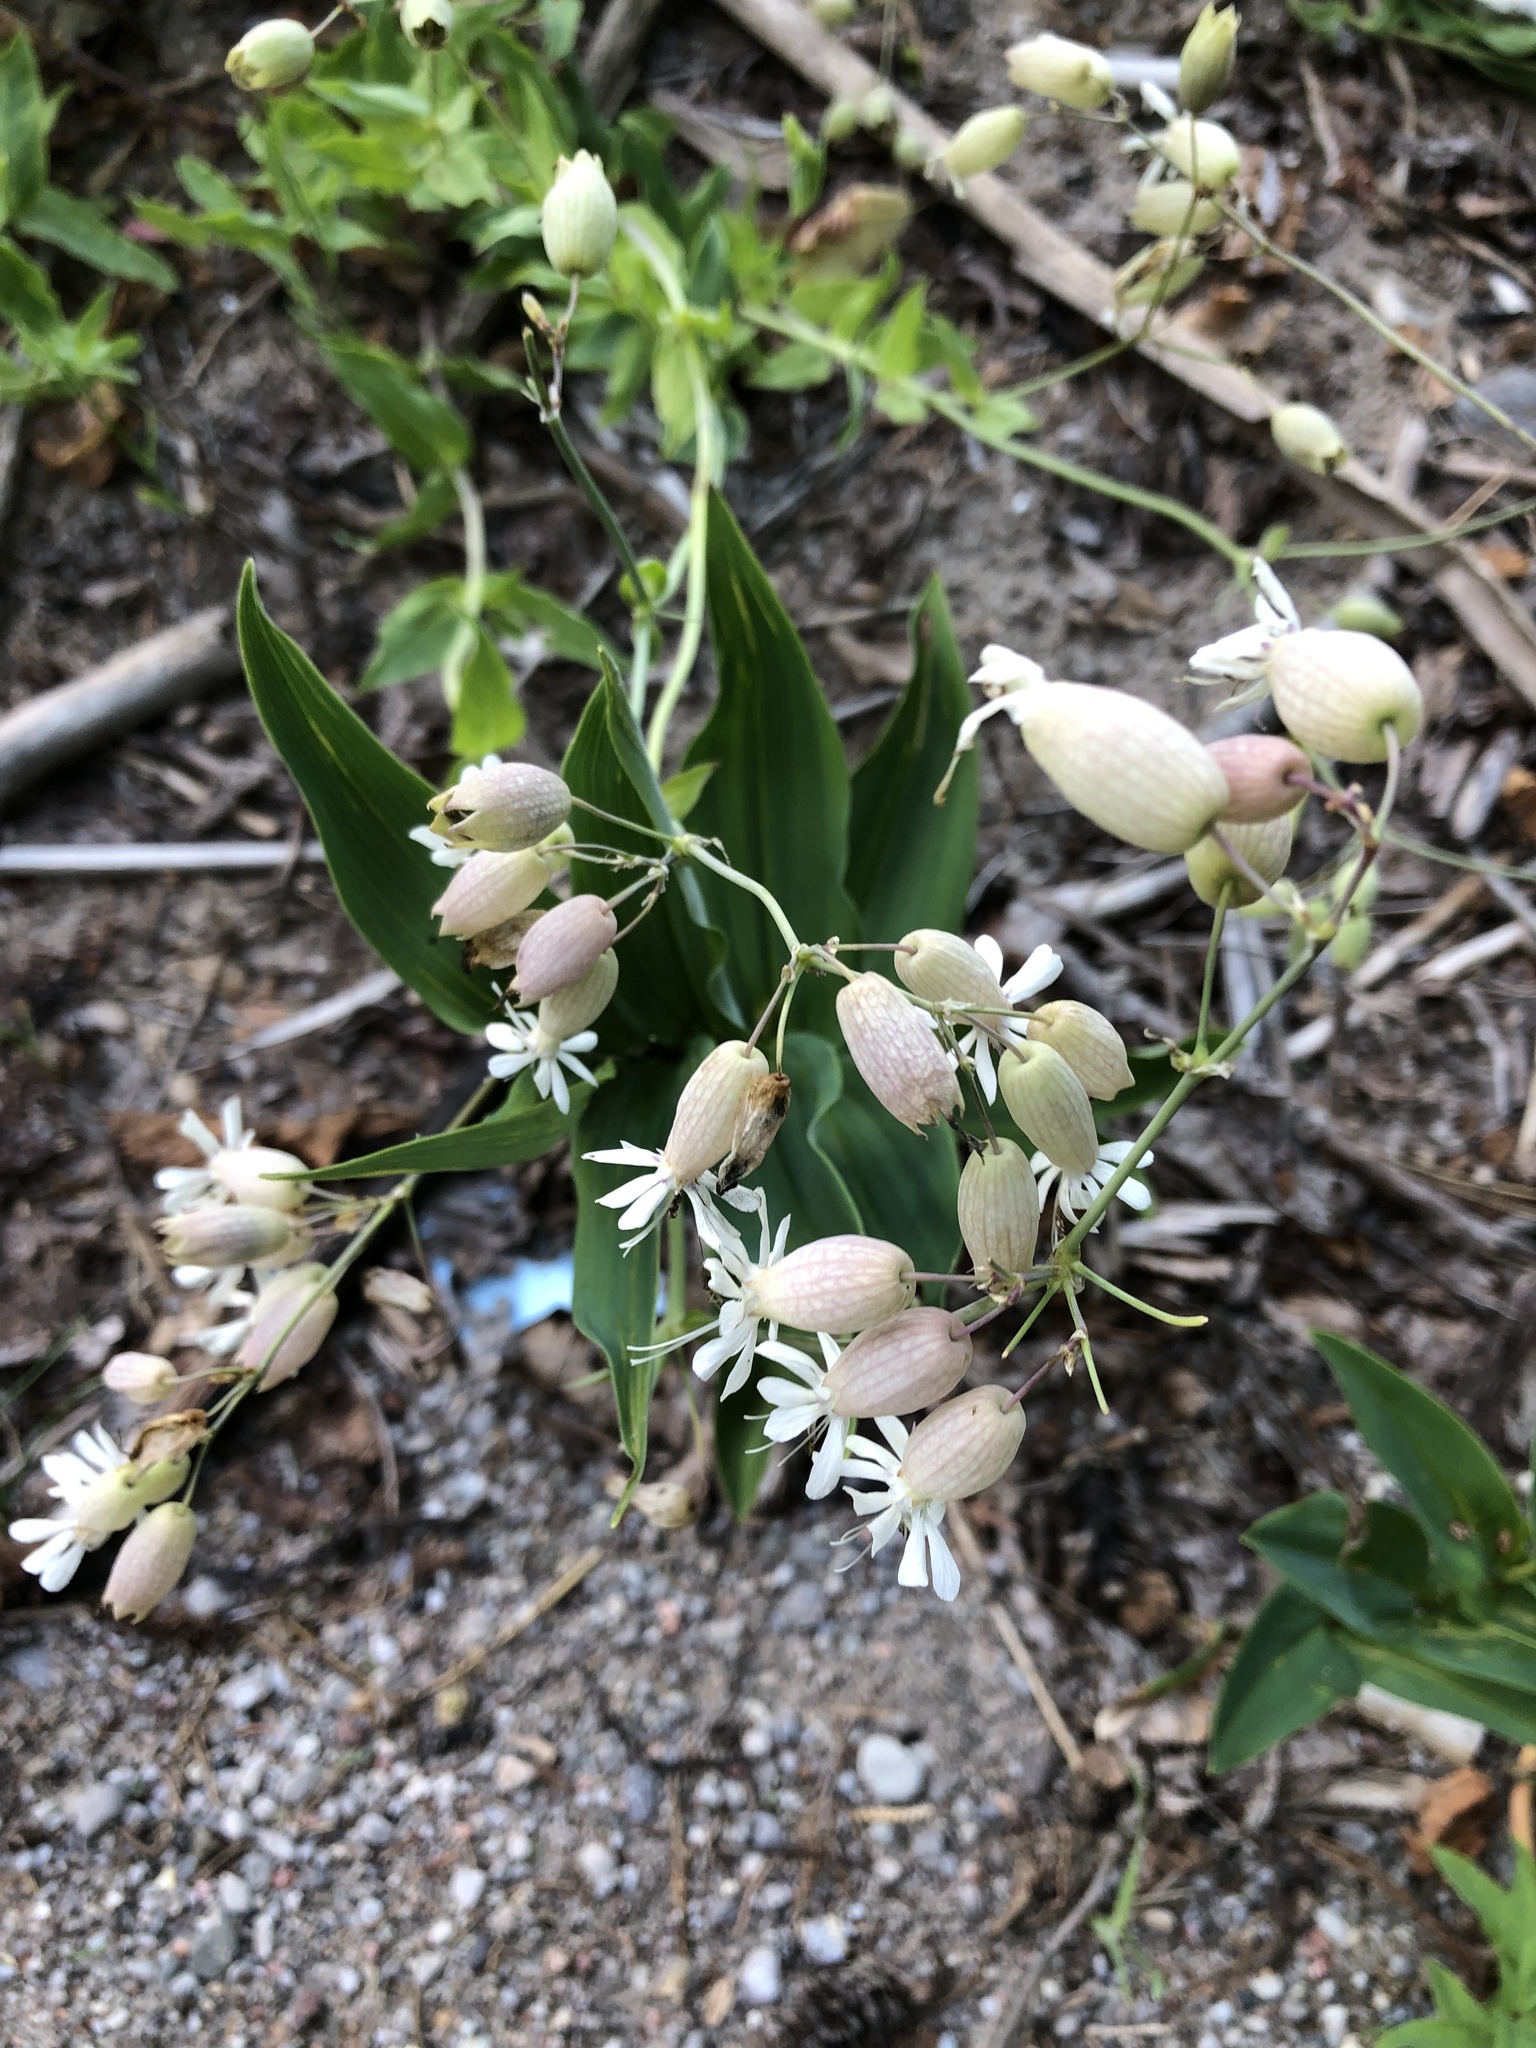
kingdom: Plantae
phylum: Tracheophyta
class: Magnoliopsida
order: Caryophyllales
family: Caryophyllaceae
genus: Silene
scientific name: Silene vulgaris
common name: Bladder campion
